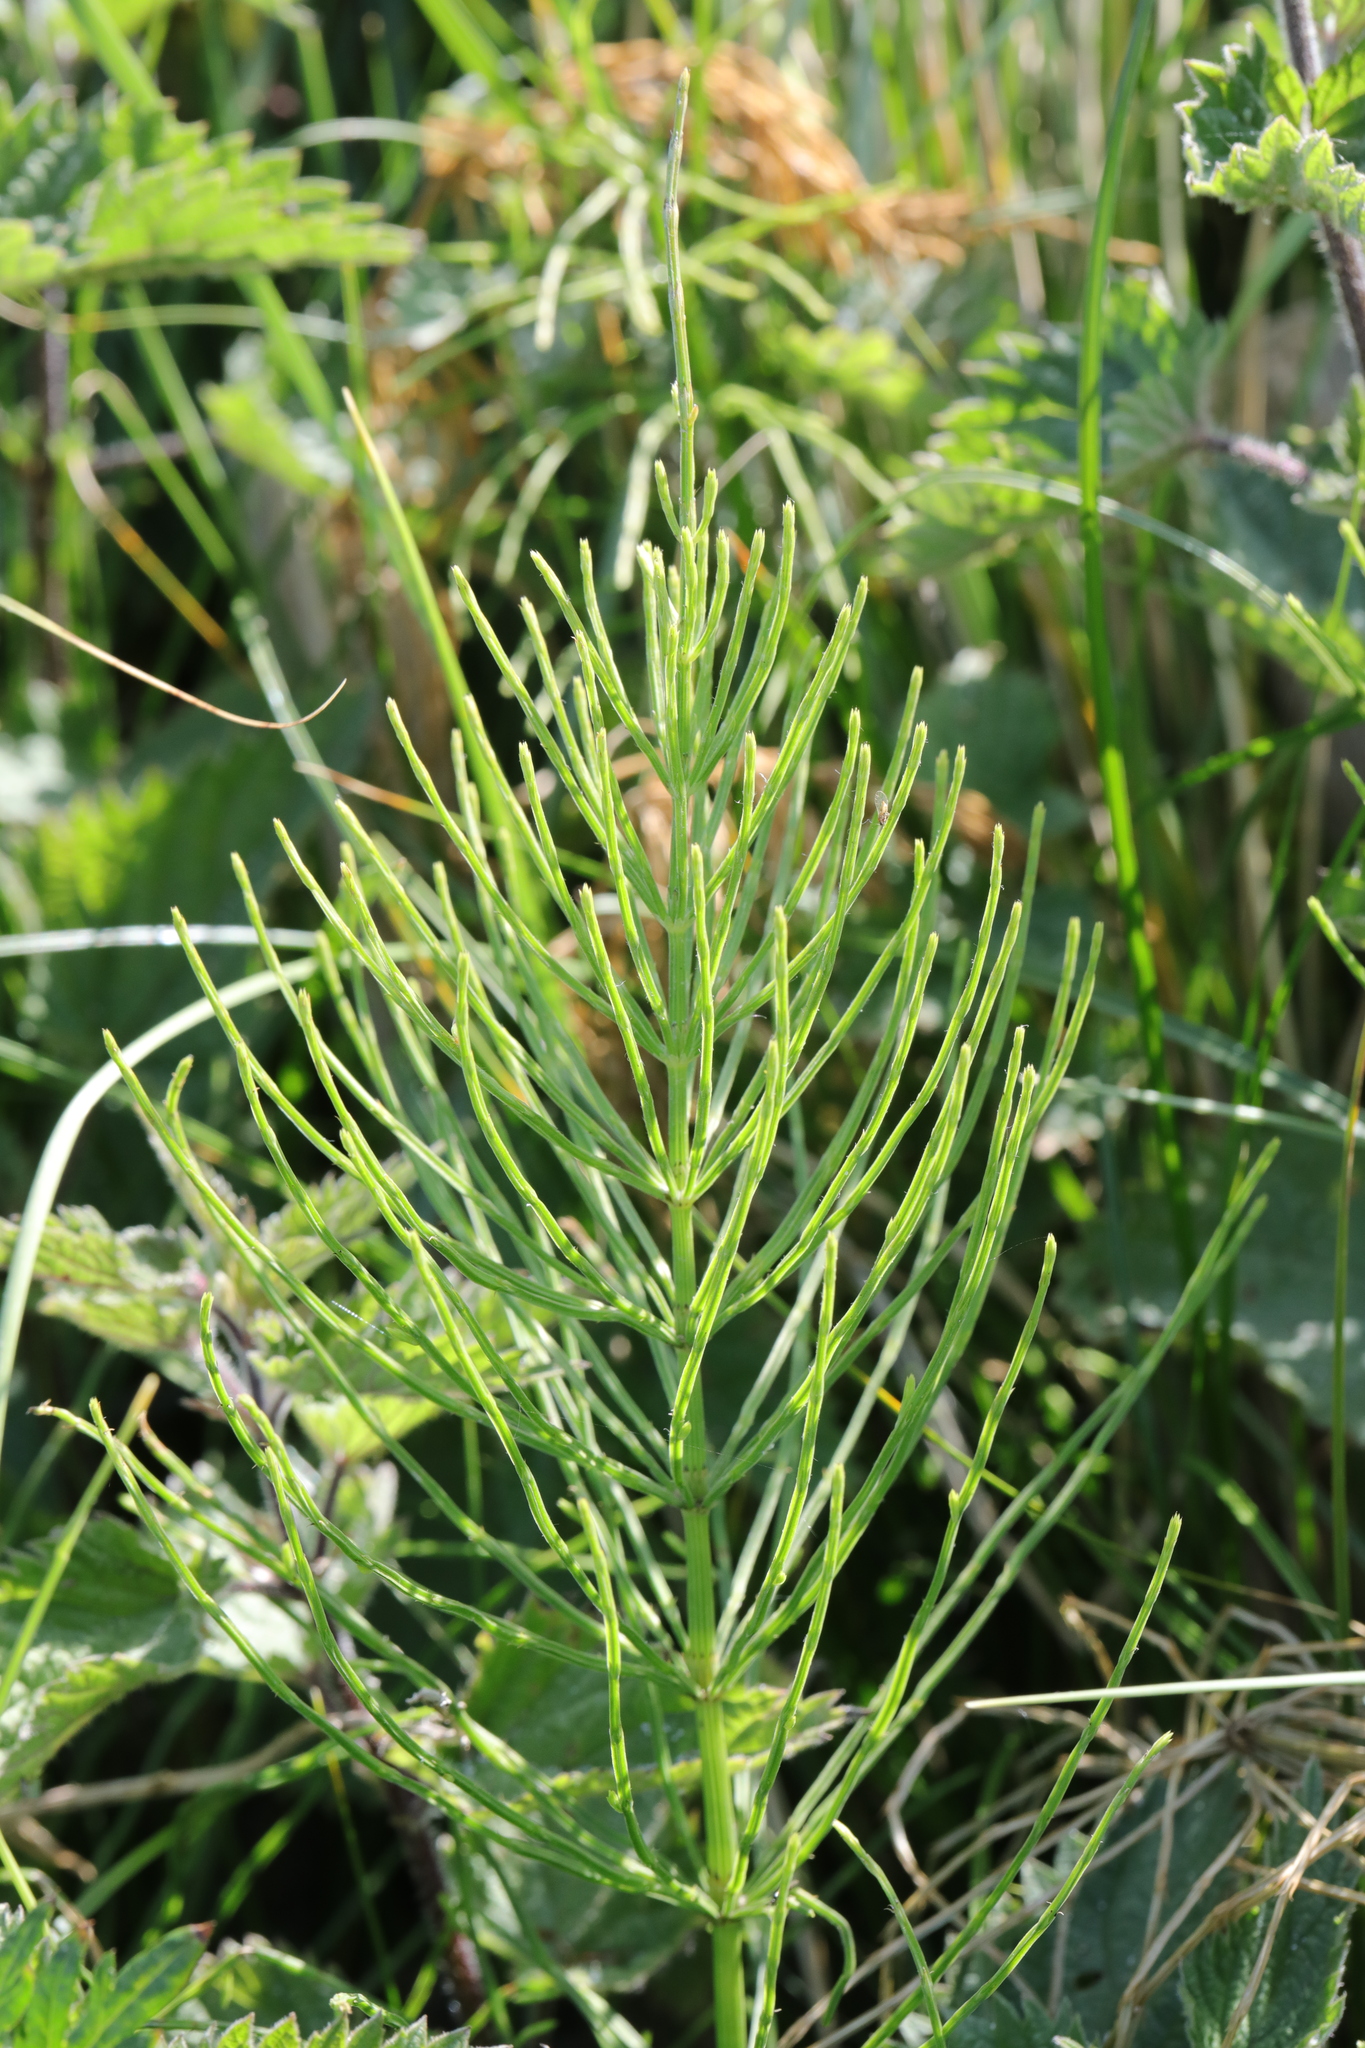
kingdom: Plantae
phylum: Tracheophyta
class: Polypodiopsida
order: Equisetales
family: Equisetaceae
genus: Equisetum
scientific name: Equisetum arvense
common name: Field horsetail
